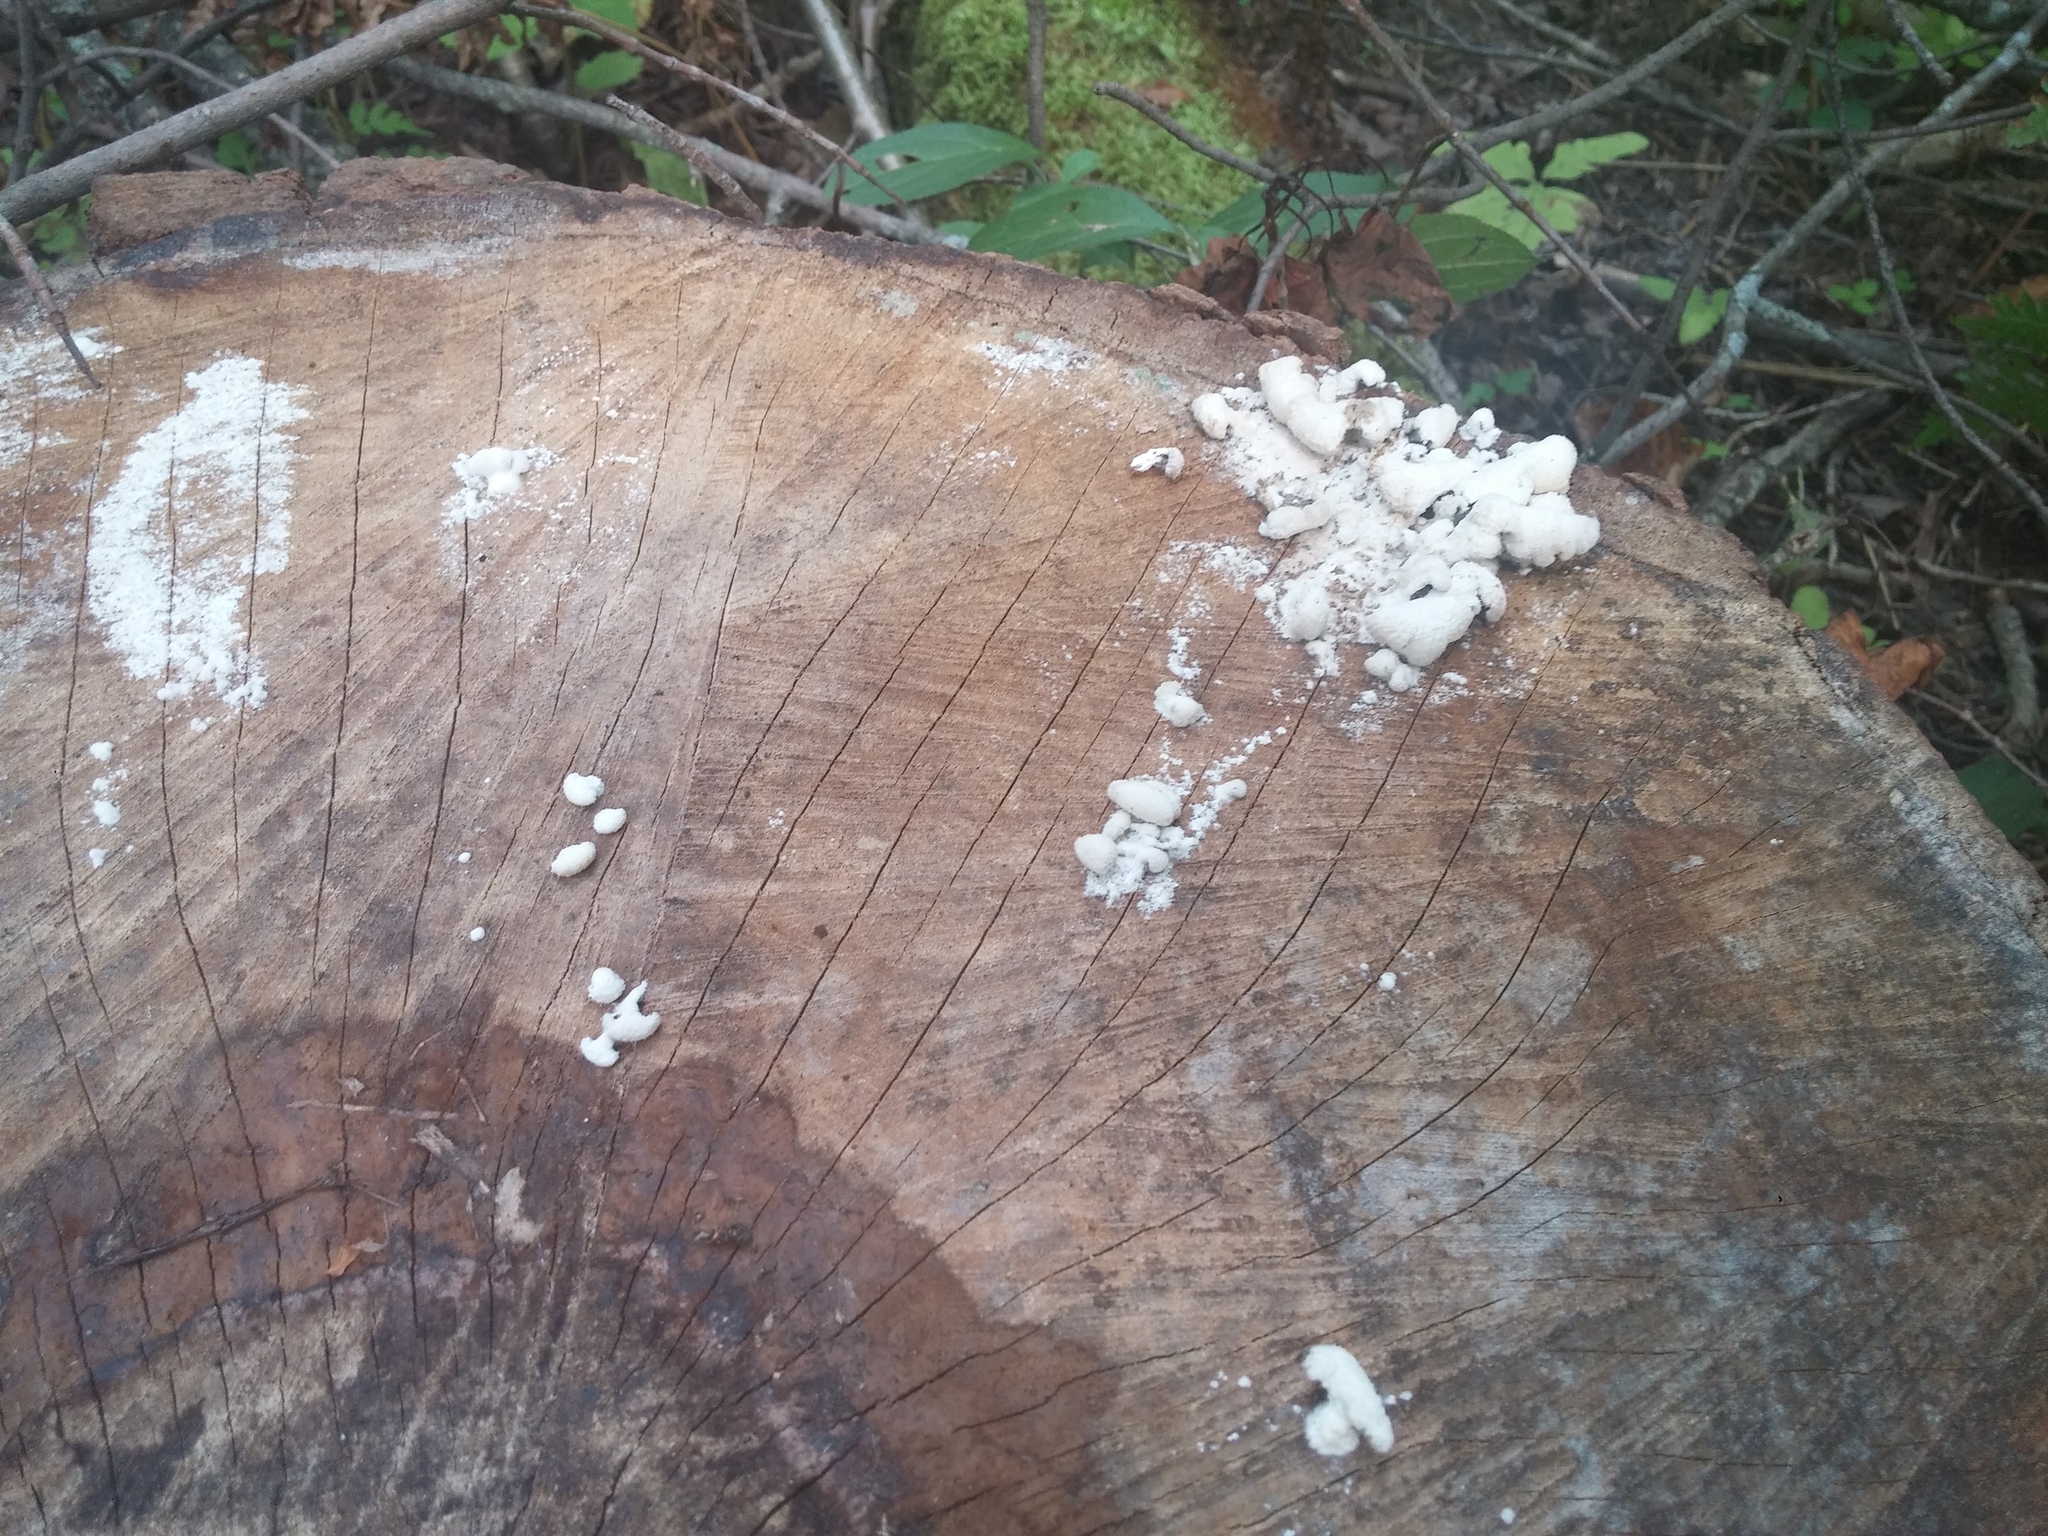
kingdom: Fungi
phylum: Basidiomycota
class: Agaricomycetes
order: Agaricales
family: Schizophyllaceae
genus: Schizophyllum
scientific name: Schizophyllum commune
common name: Common porecrust
